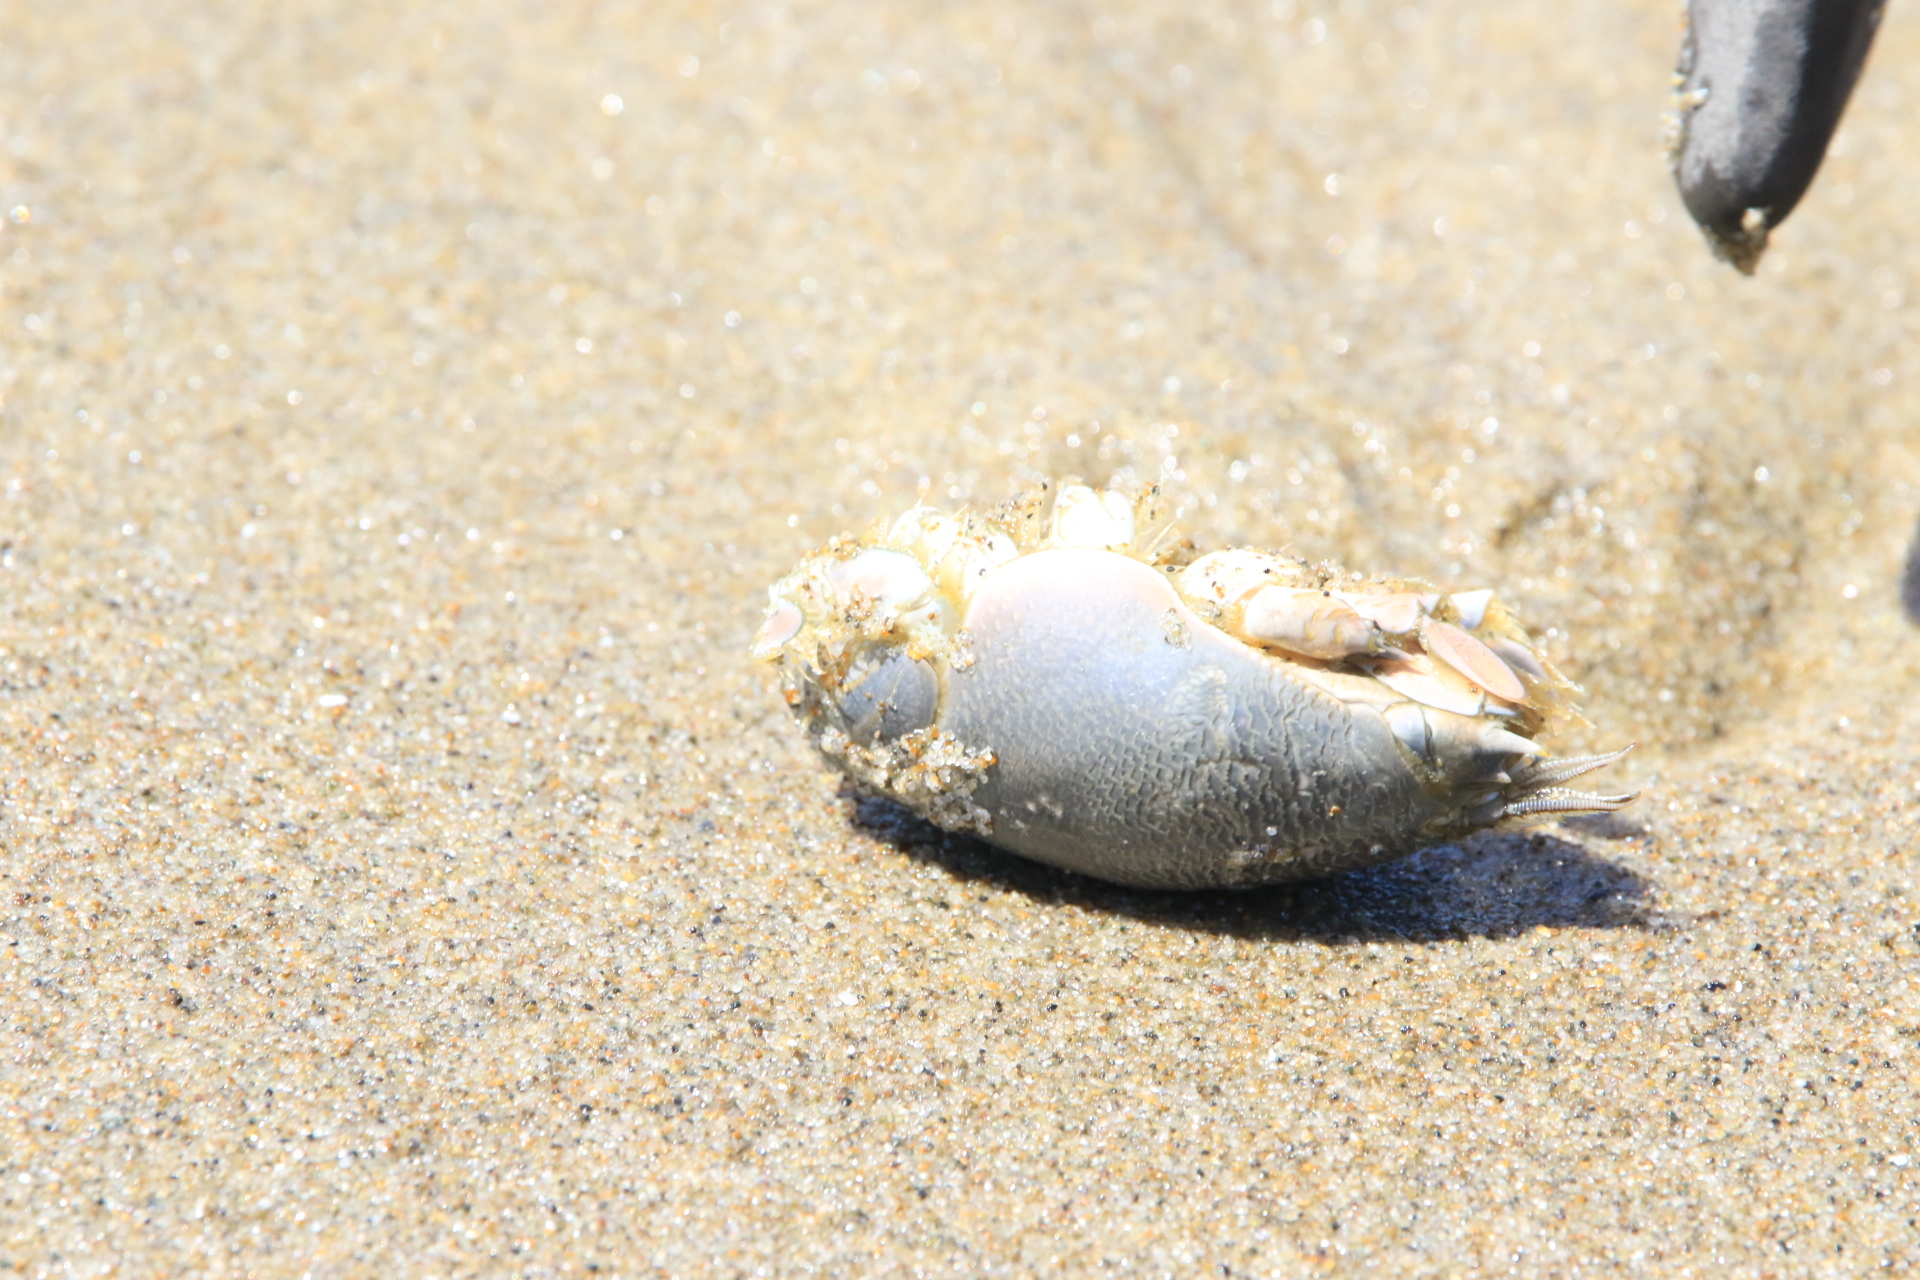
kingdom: Animalia
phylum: Arthropoda
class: Malacostraca
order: Decapoda
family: Hippidae
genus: Emerita
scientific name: Emerita analoga
